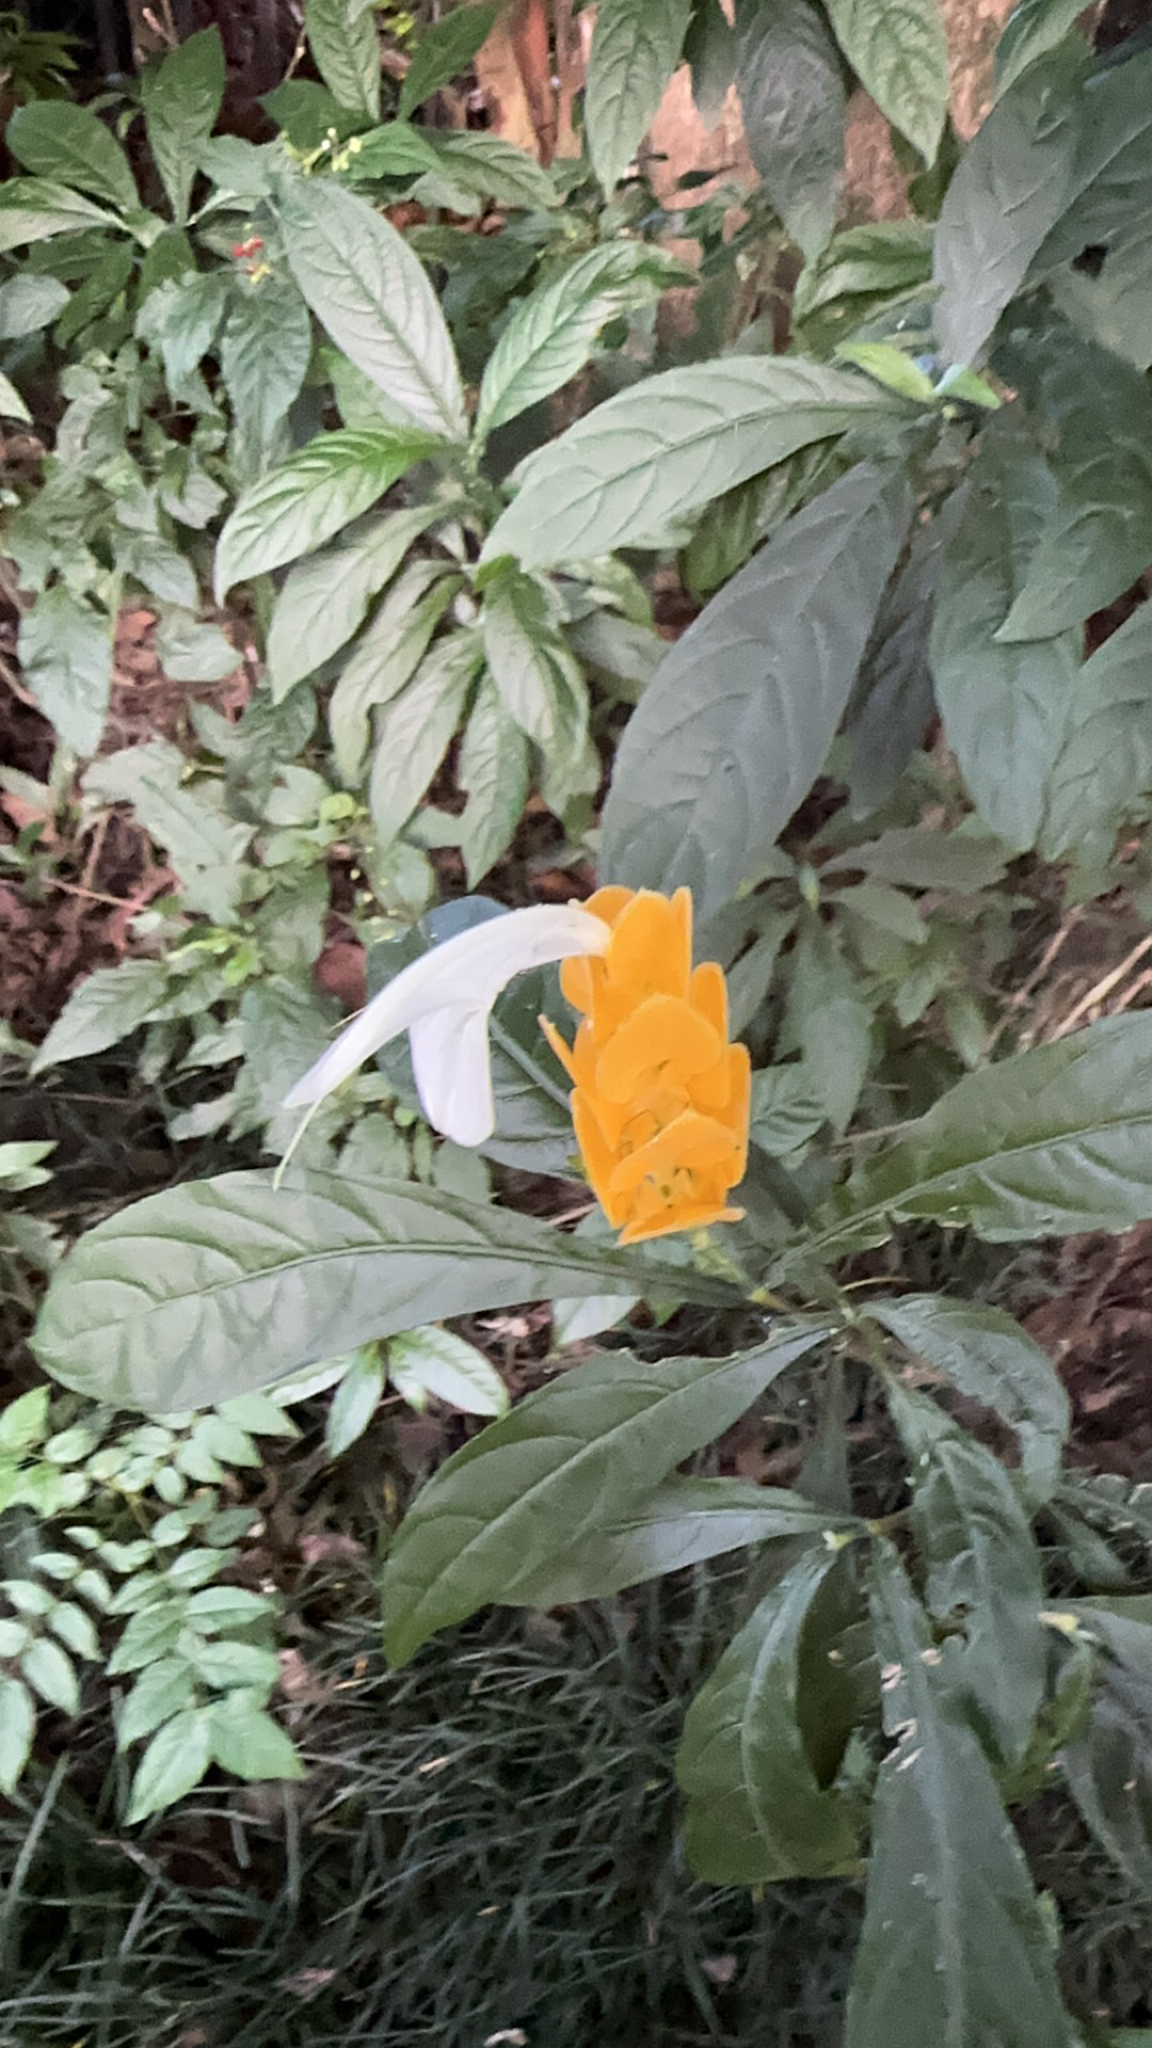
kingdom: Plantae
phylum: Tracheophyta
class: Magnoliopsida
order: Lamiales
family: Acanthaceae
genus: Pachystachys
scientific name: Pachystachys lutea
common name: Golden shrimp-plant
